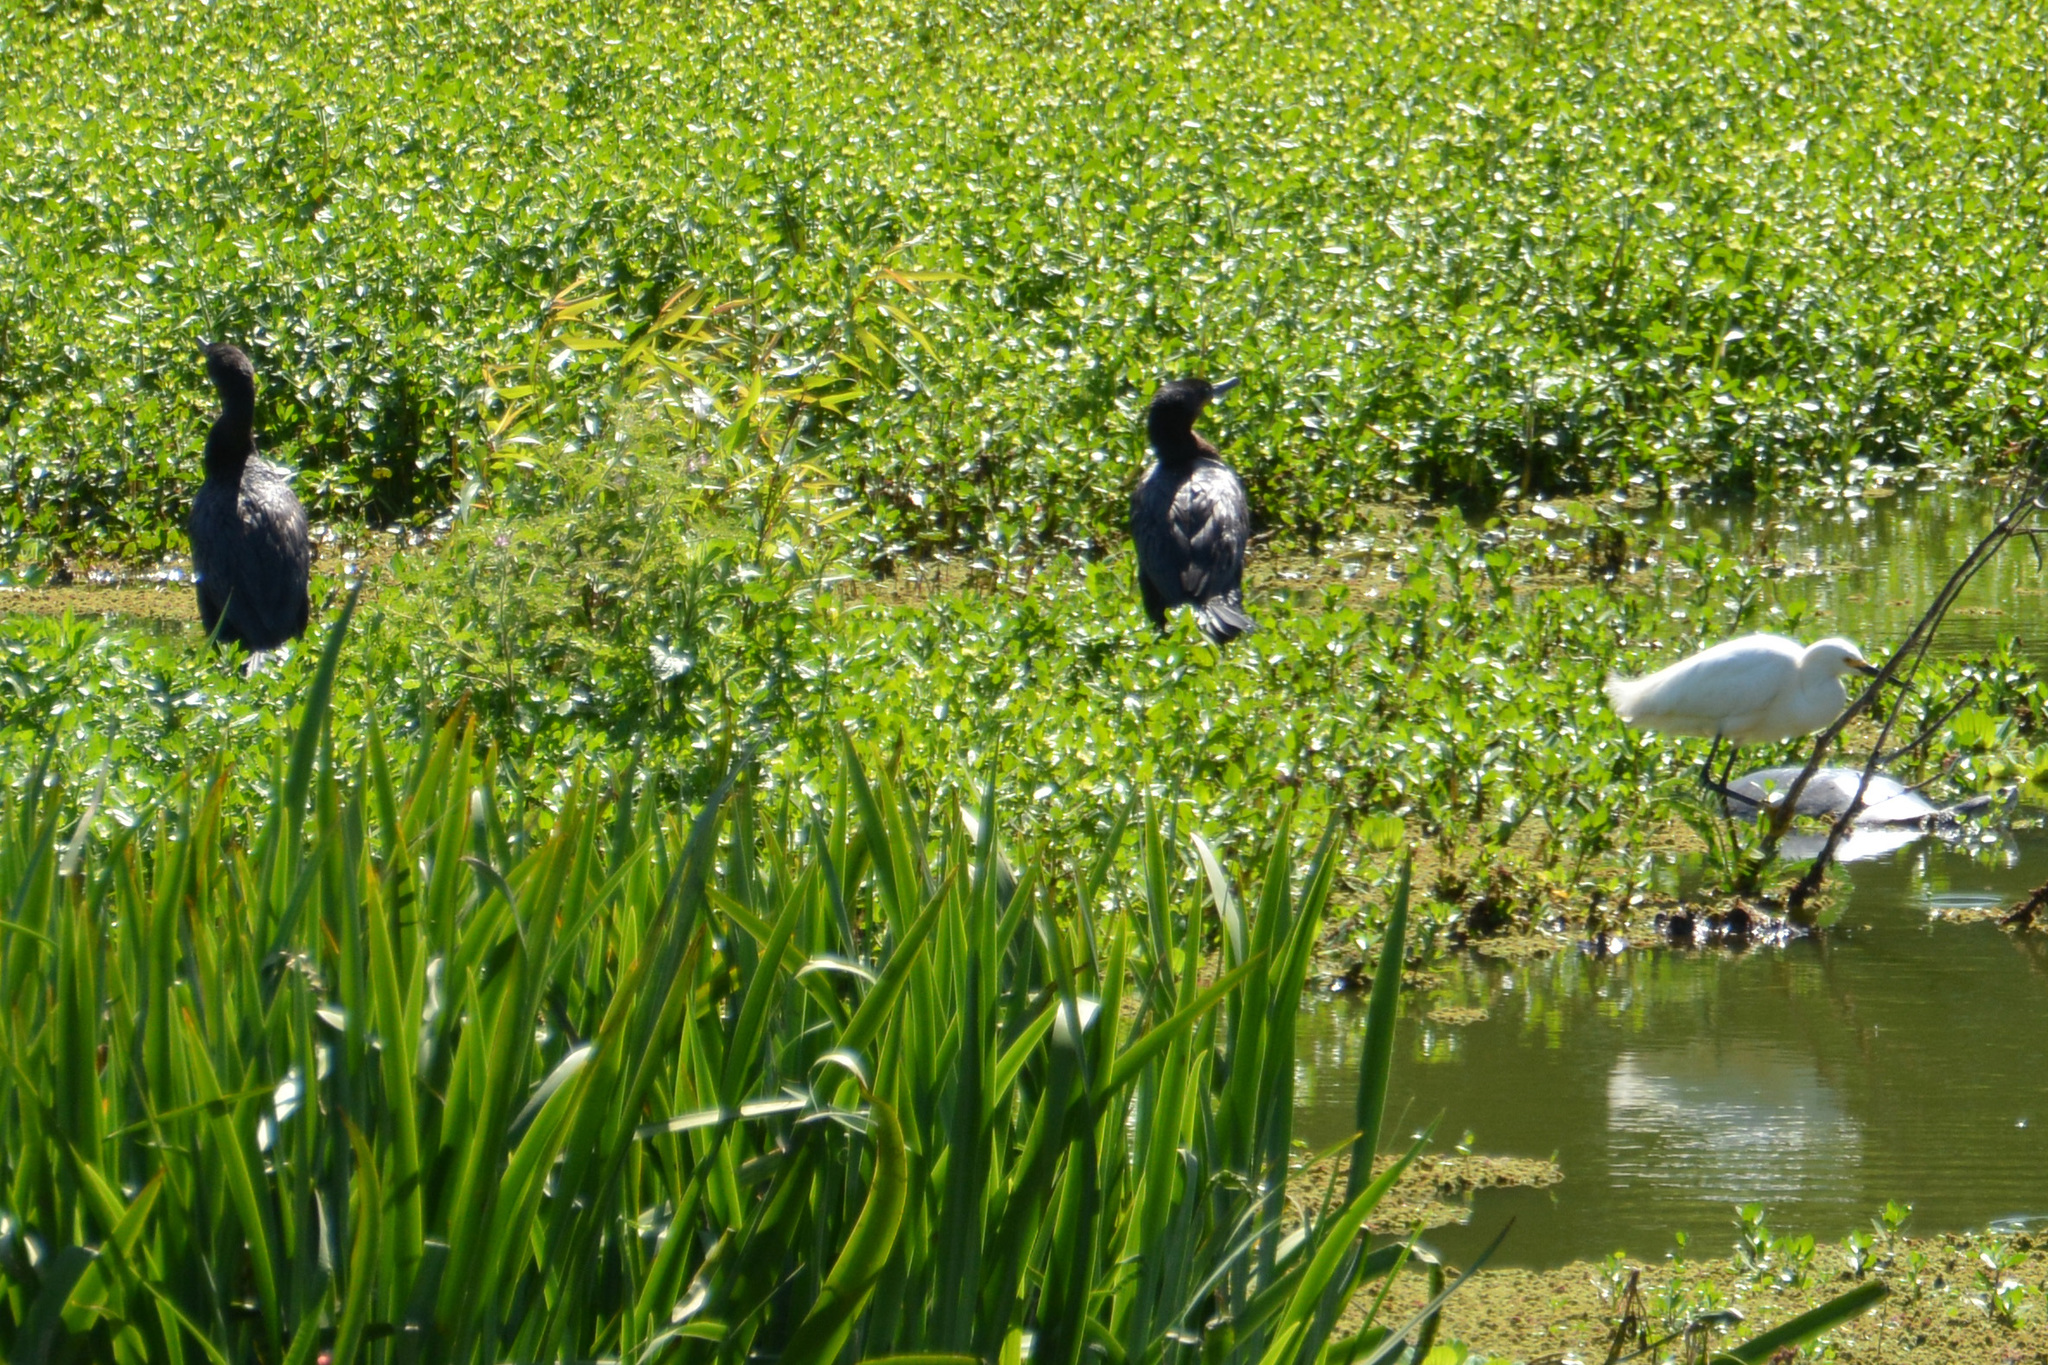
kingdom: Animalia
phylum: Chordata
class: Aves
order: Suliformes
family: Phalacrocoracidae
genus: Phalacrocorax
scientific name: Phalacrocorax brasilianus
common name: Neotropic cormorant
